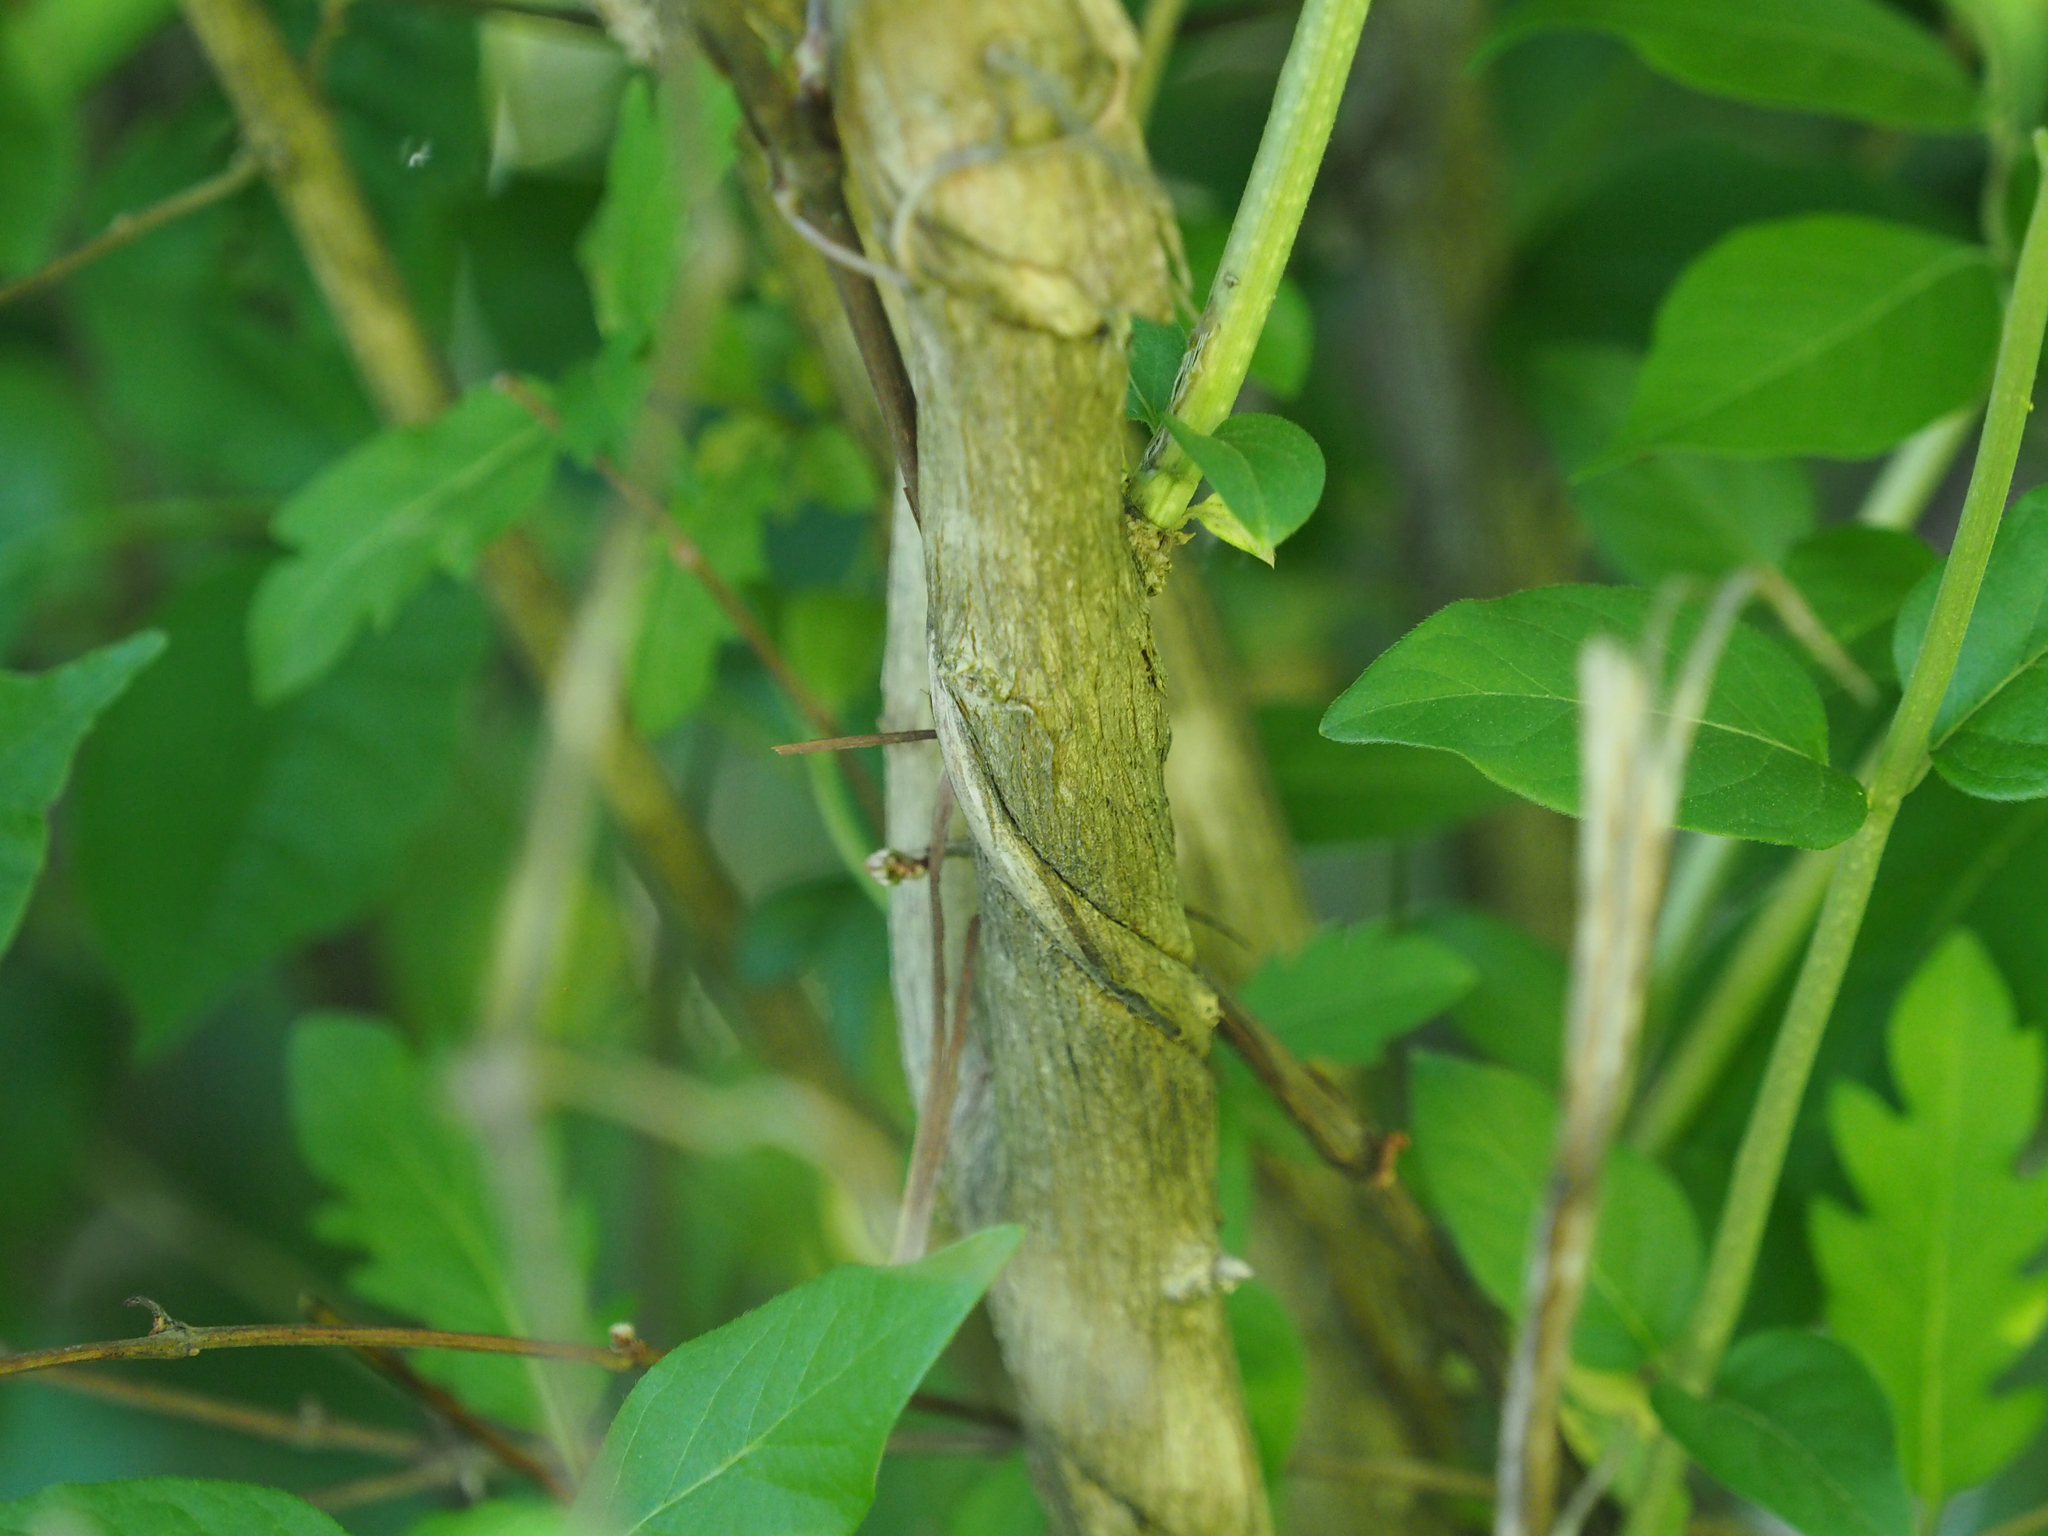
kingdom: Plantae
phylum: Tracheophyta
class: Magnoliopsida
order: Dipsacales
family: Caprifoliaceae
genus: Lonicera
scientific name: Lonicera maackii
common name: Amur honeysuckle
